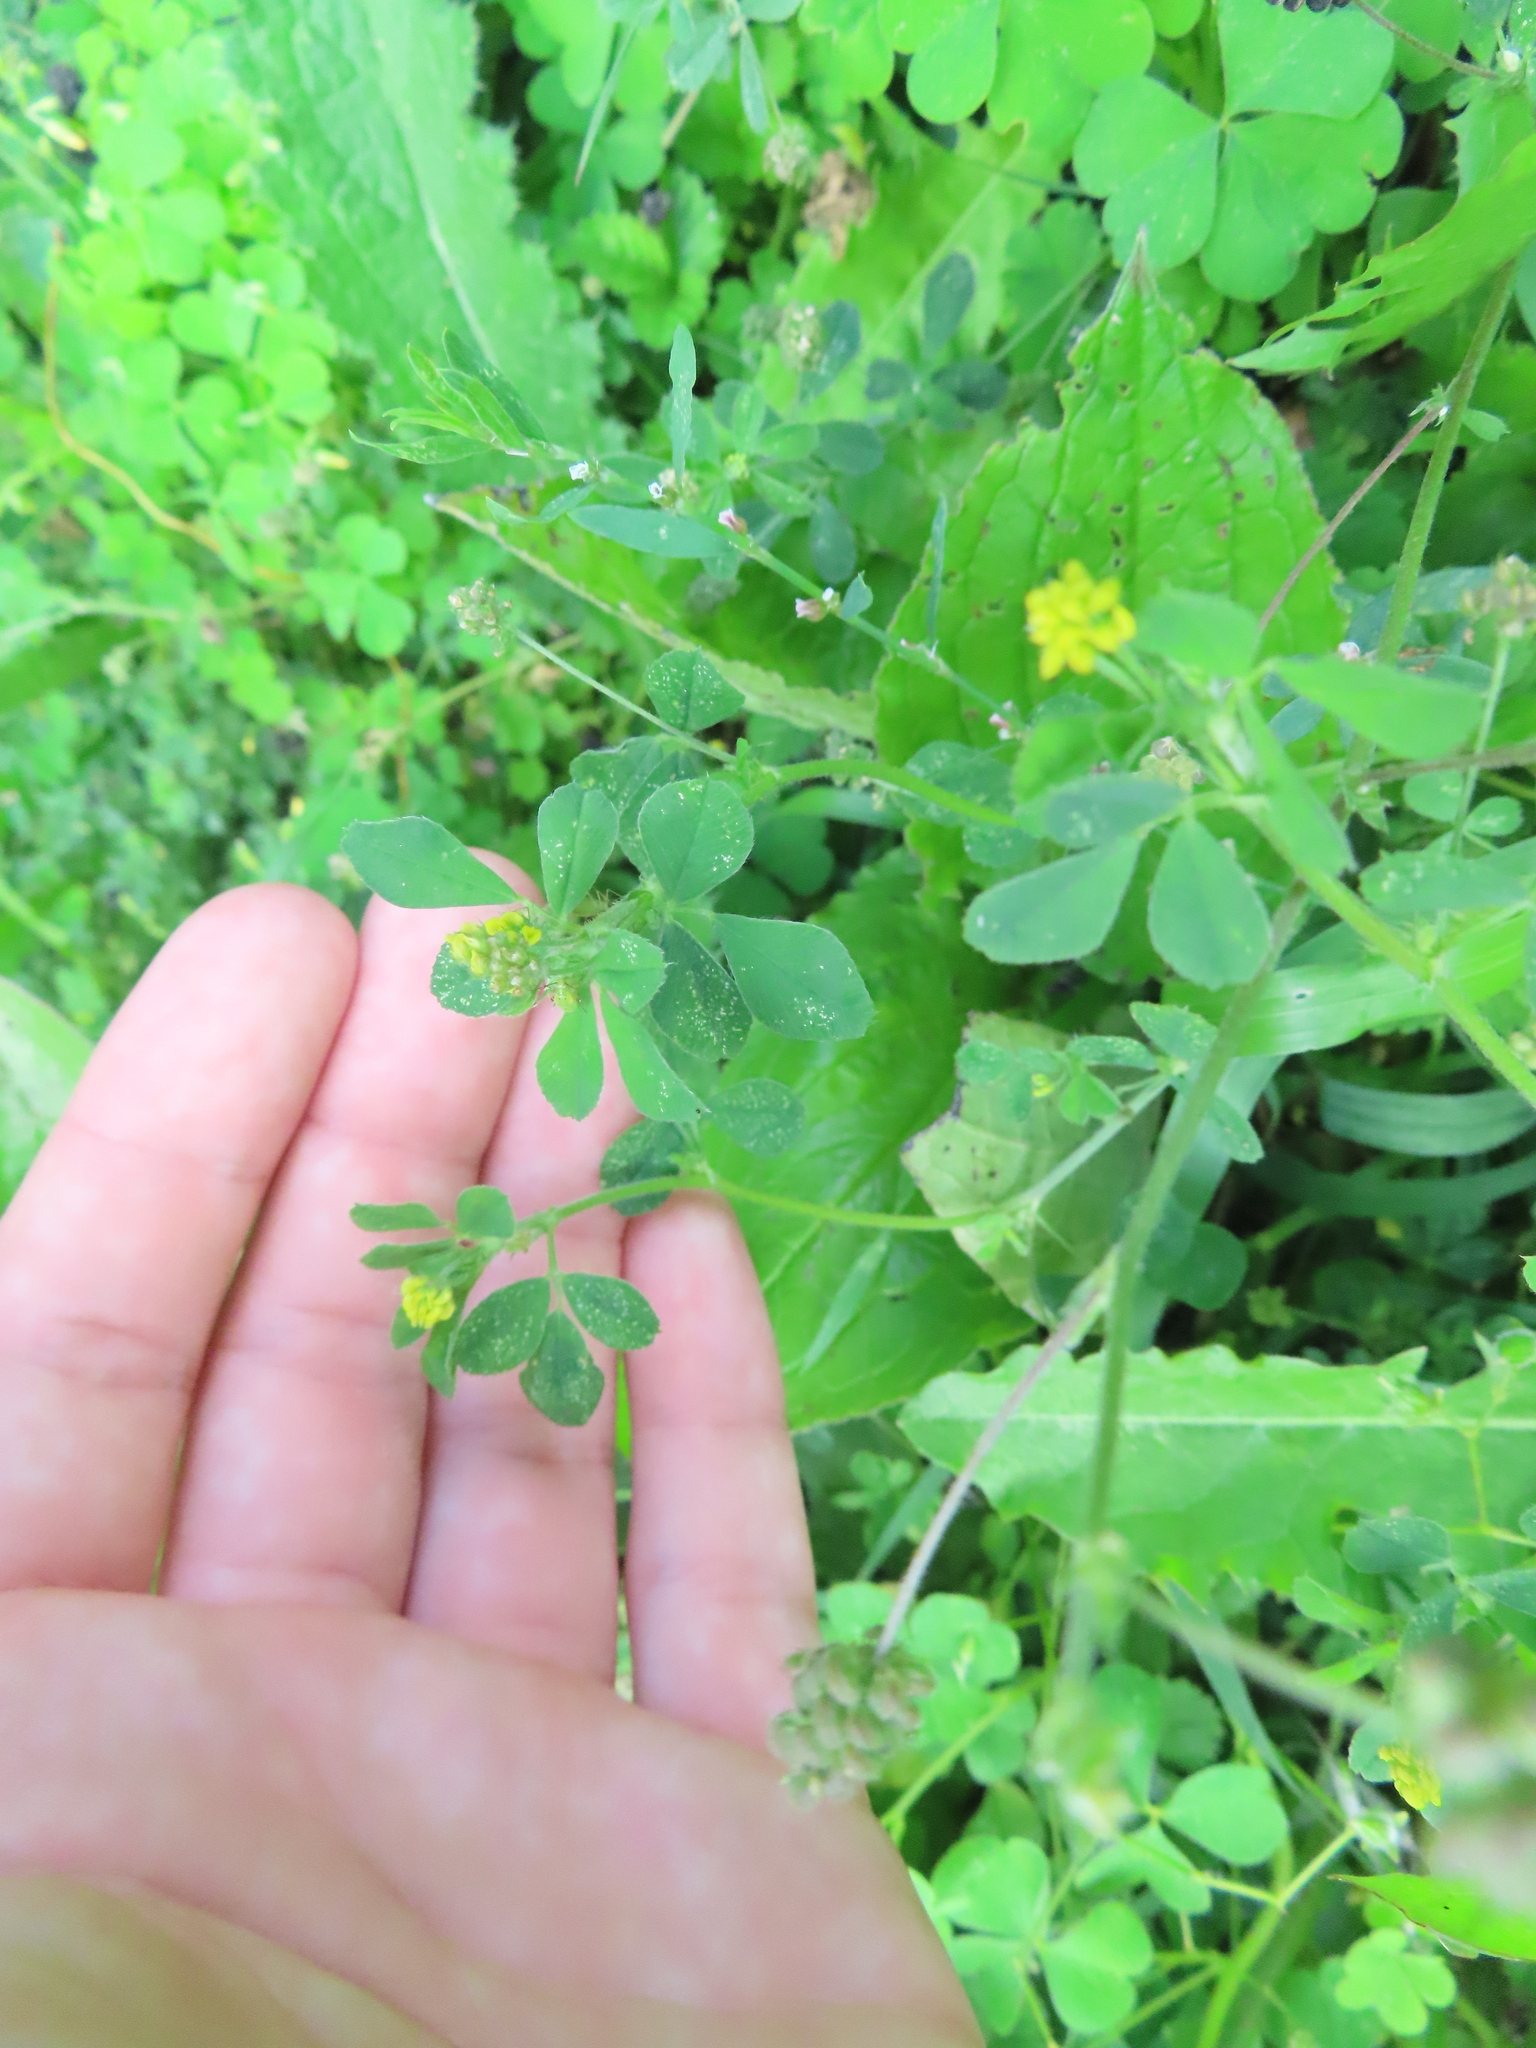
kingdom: Plantae
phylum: Tracheophyta
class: Magnoliopsida
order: Fabales
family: Fabaceae
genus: Medicago
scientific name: Medicago lupulina
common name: Black medick
